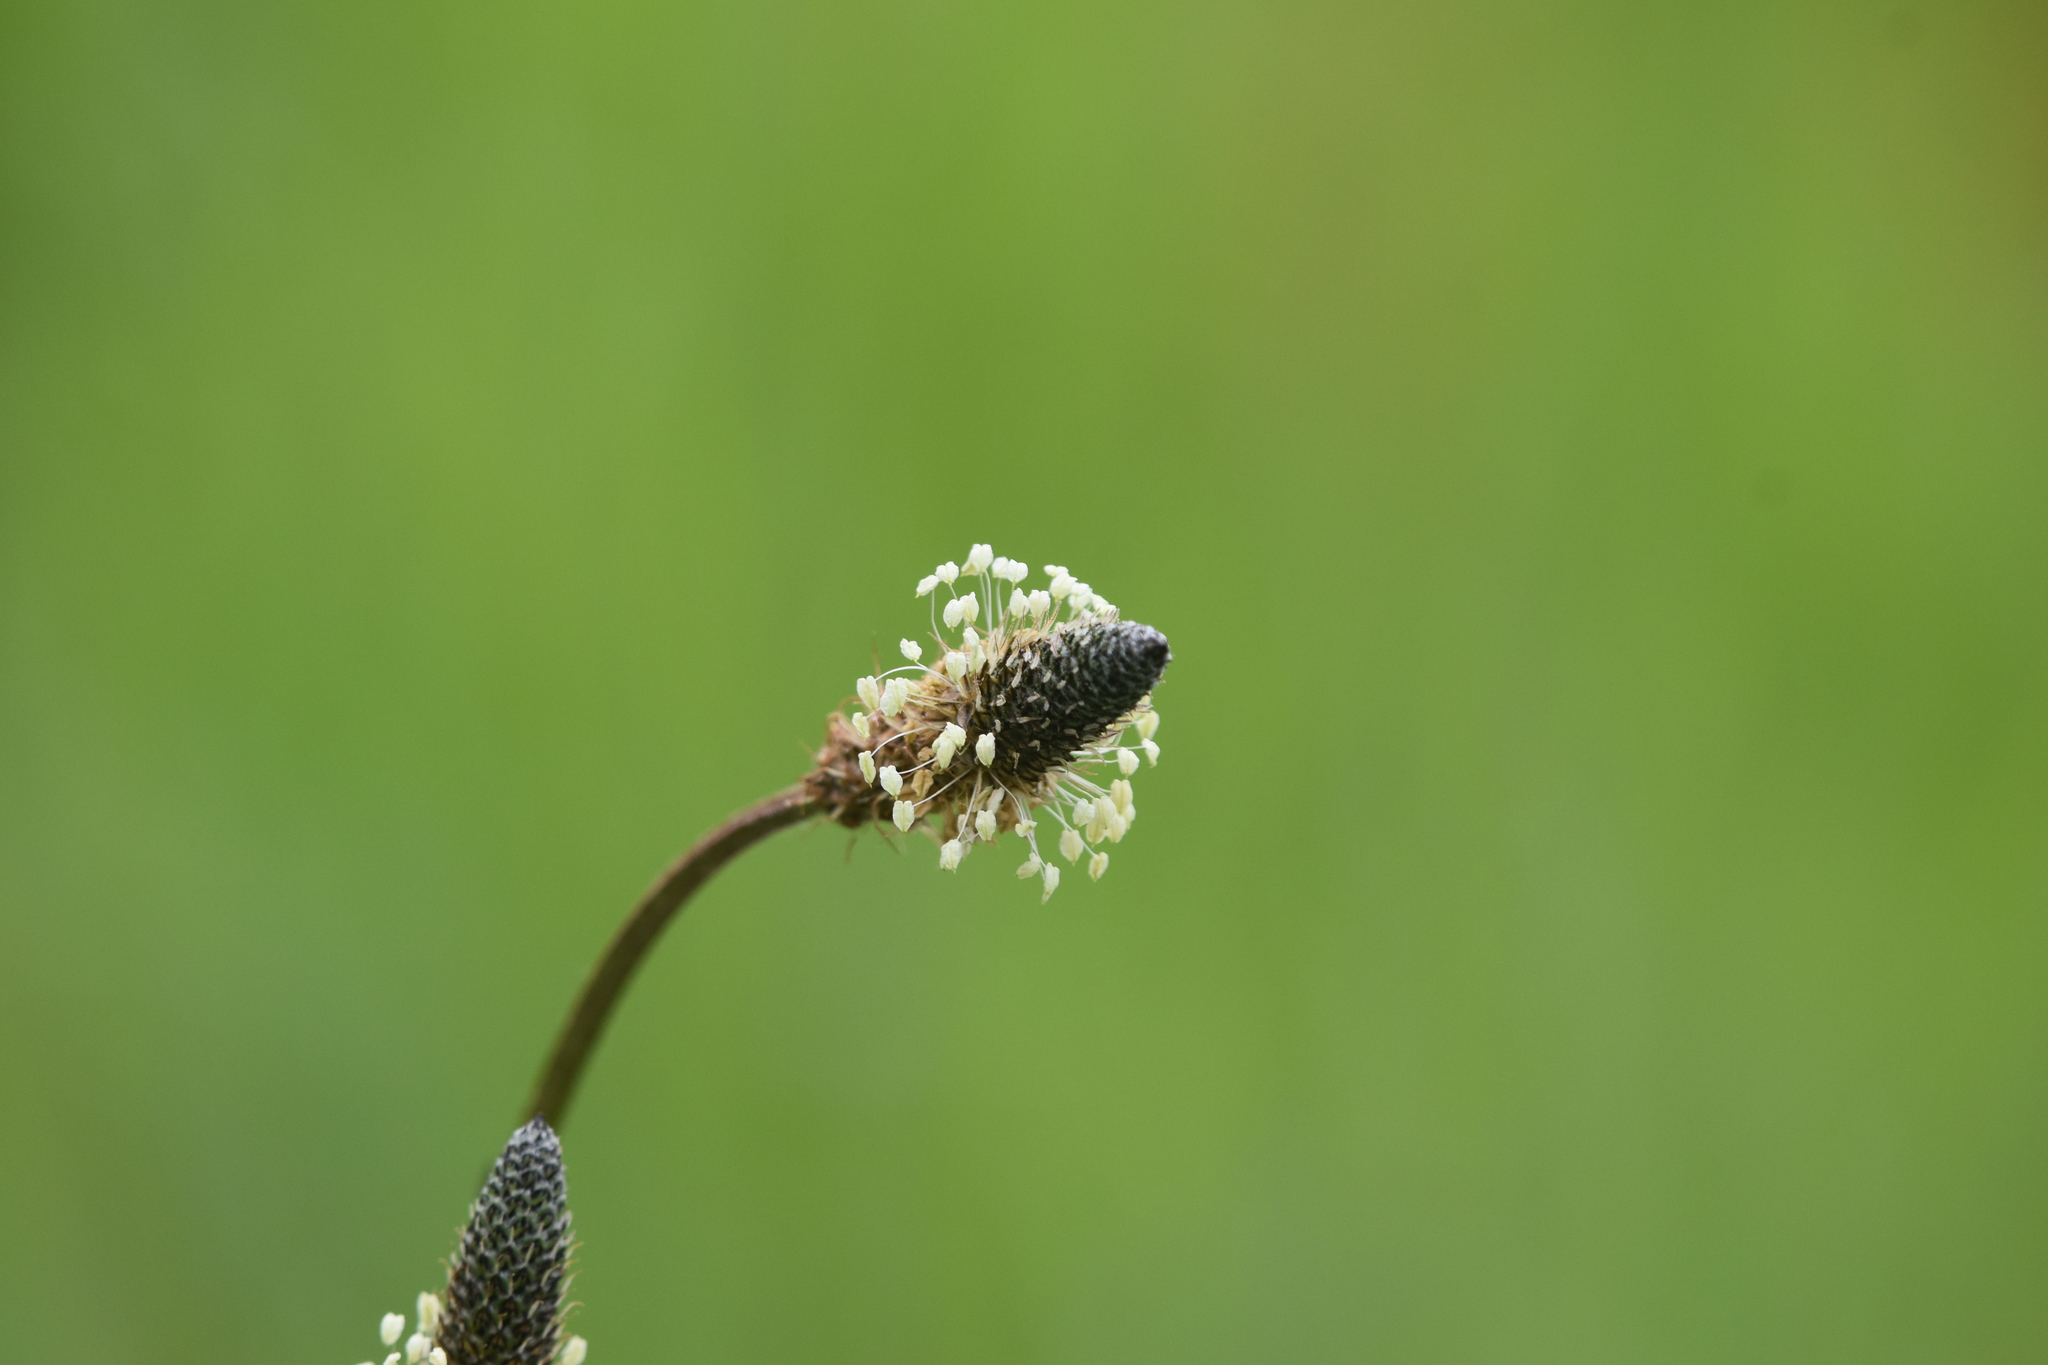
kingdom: Plantae
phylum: Tracheophyta
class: Magnoliopsida
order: Lamiales
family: Plantaginaceae
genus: Plantago
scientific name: Plantago lanceolata
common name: Ribwort plantain
